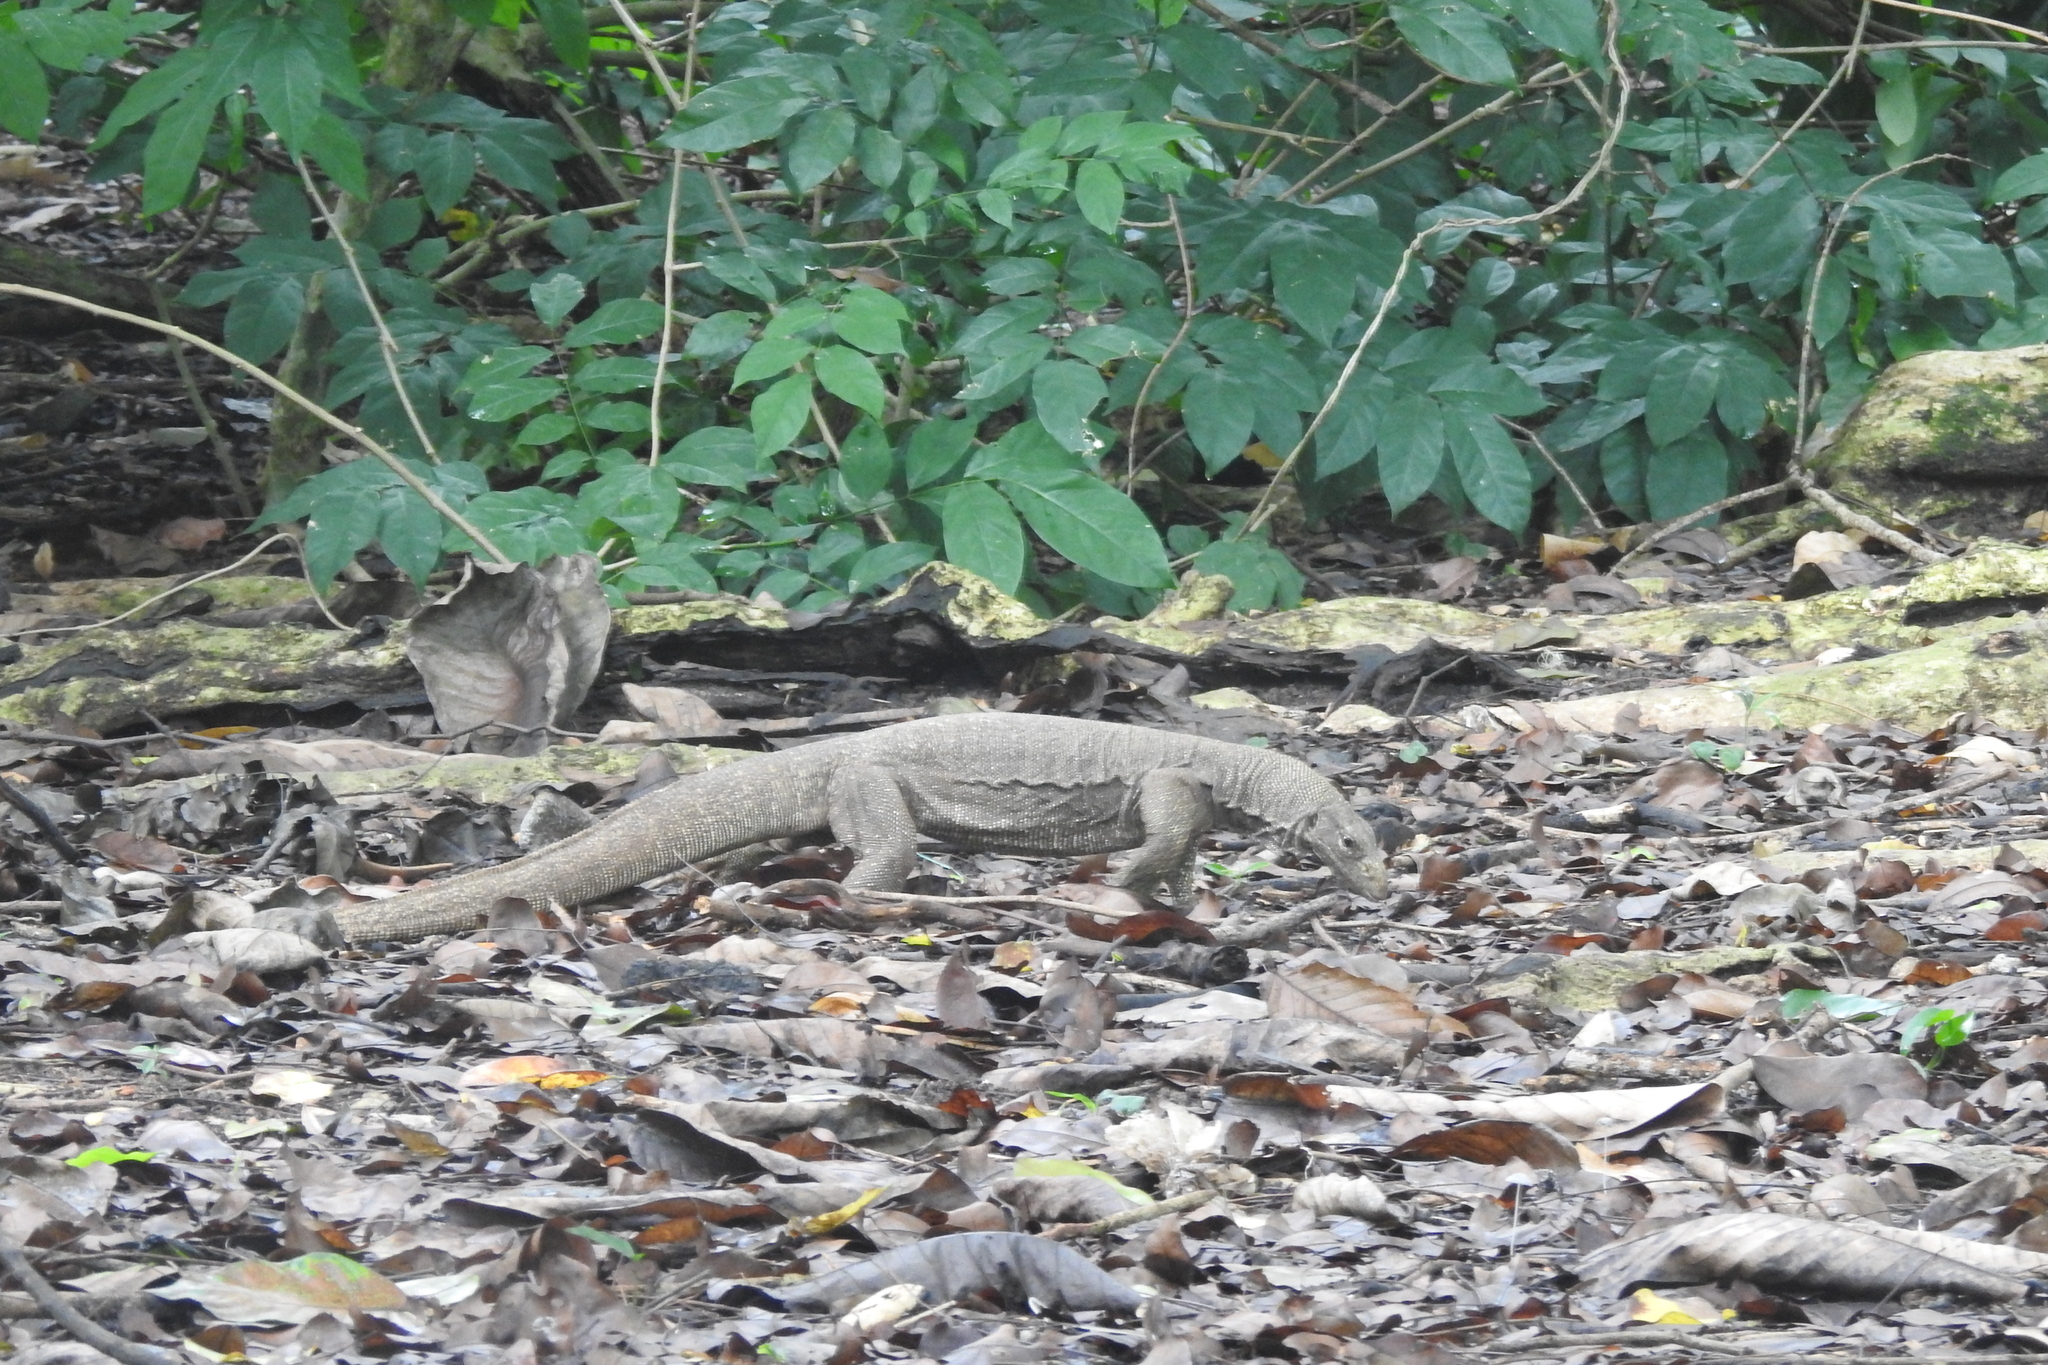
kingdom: Animalia
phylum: Chordata
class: Squamata
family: Varanidae
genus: Varanus
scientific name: Varanus nebulosus
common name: Clouded monitor
